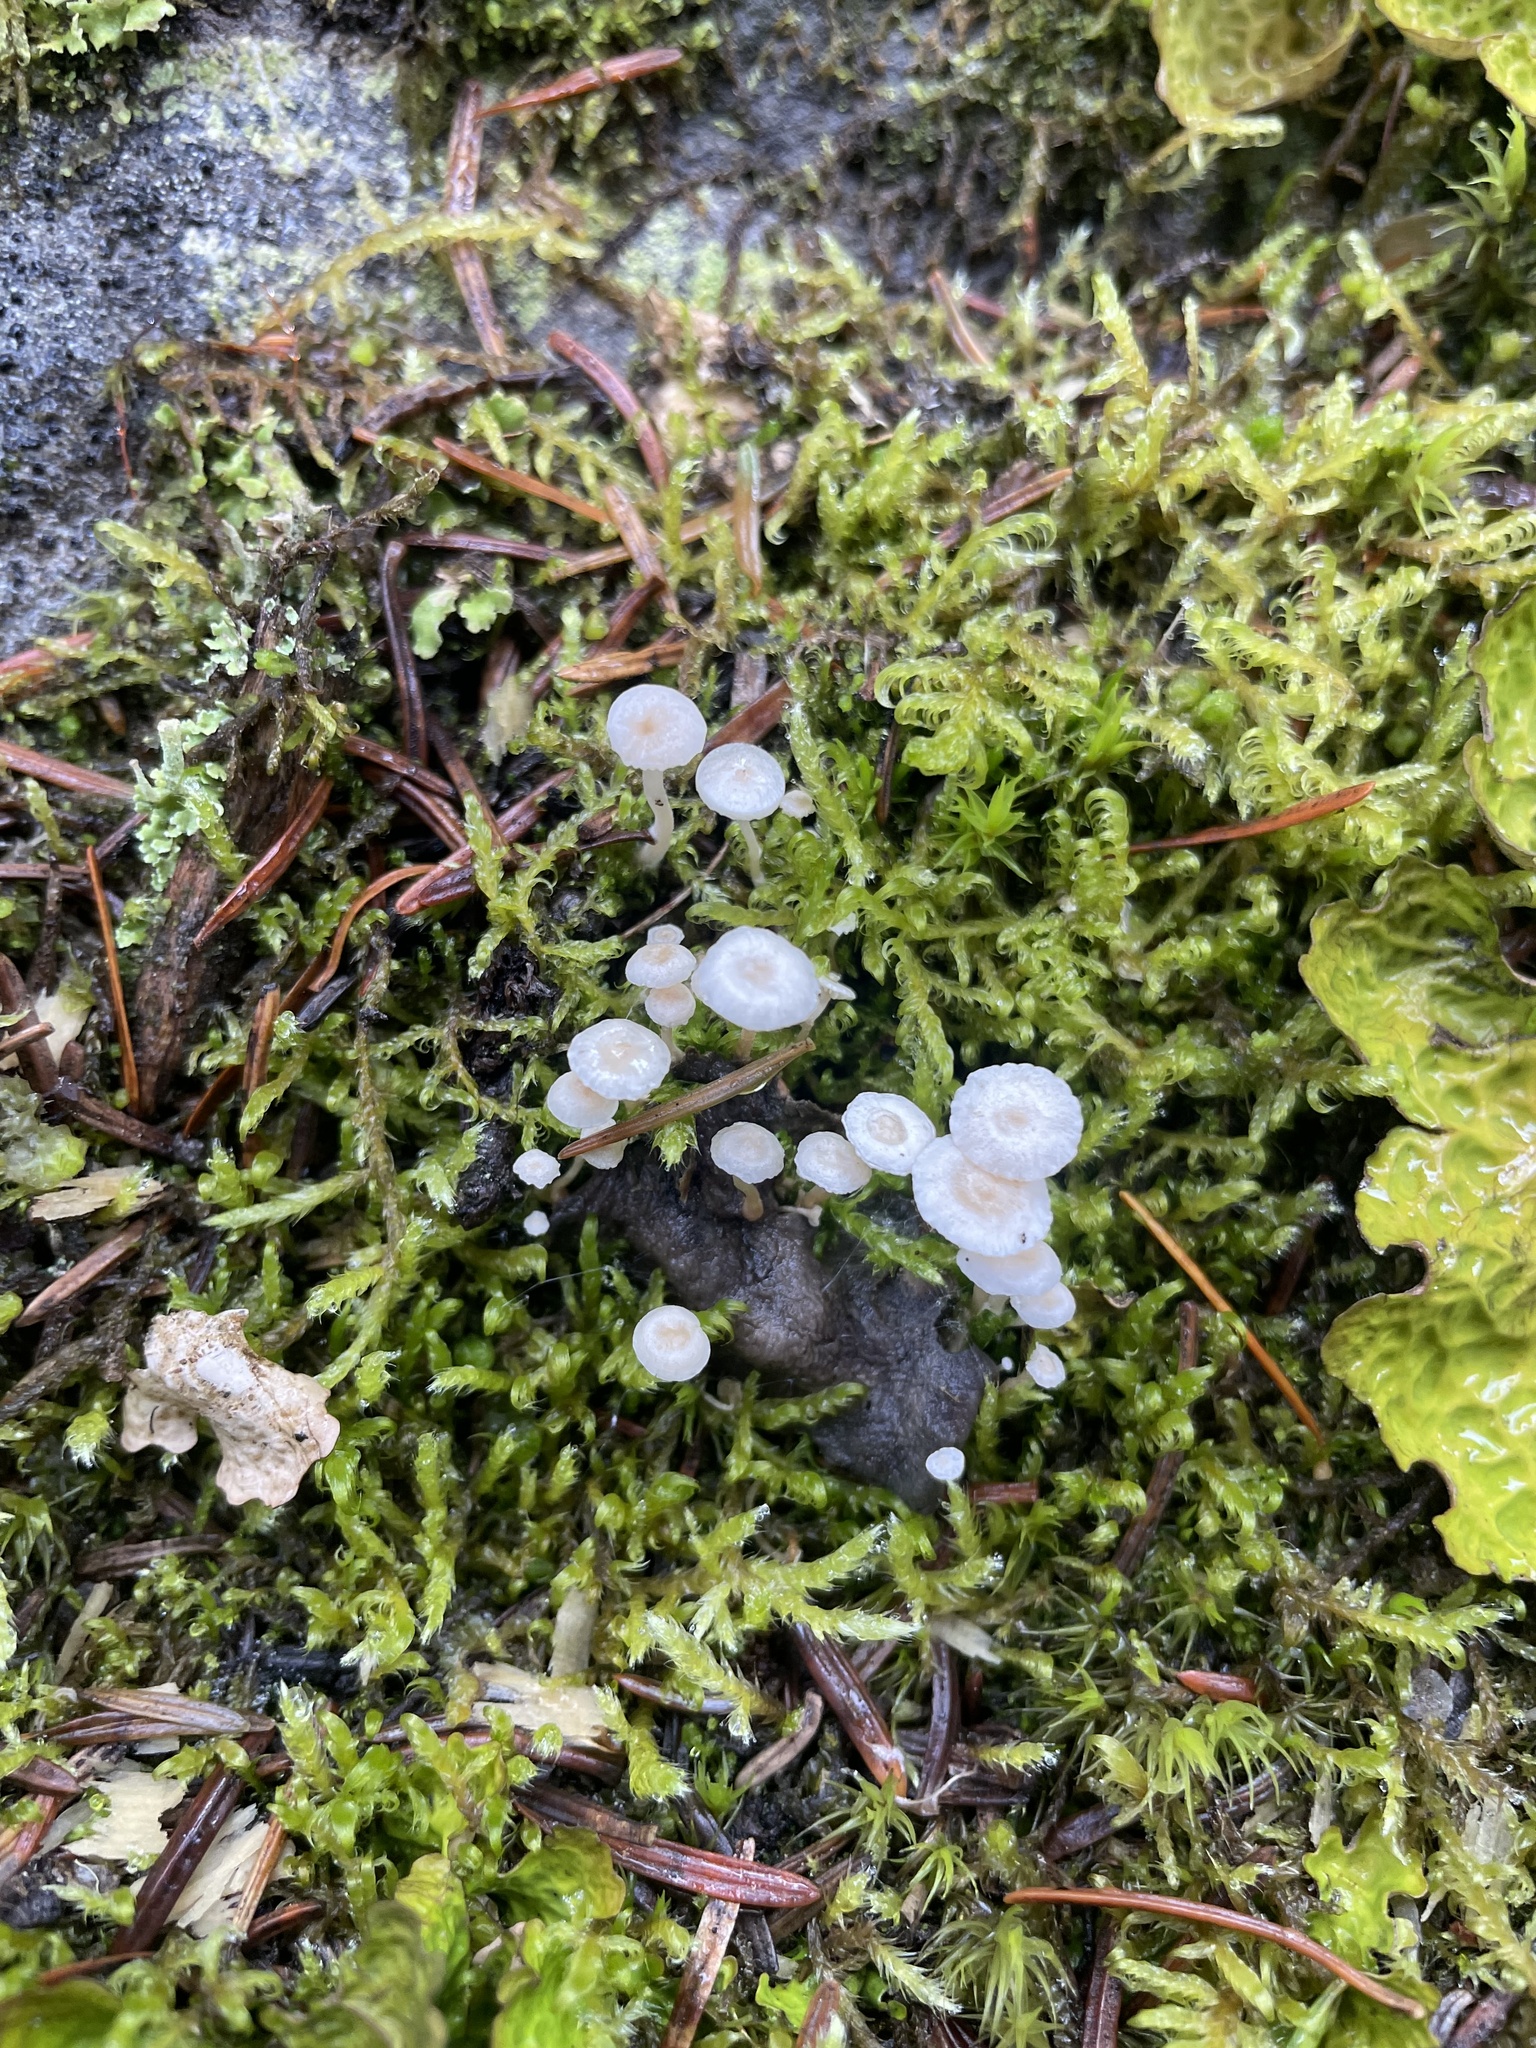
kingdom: Fungi
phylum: Basidiomycota
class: Agaricomycetes
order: Agaricales
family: Tricholomataceae
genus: Collybia
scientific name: Collybia cirrhata
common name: Piggyback shanklet
